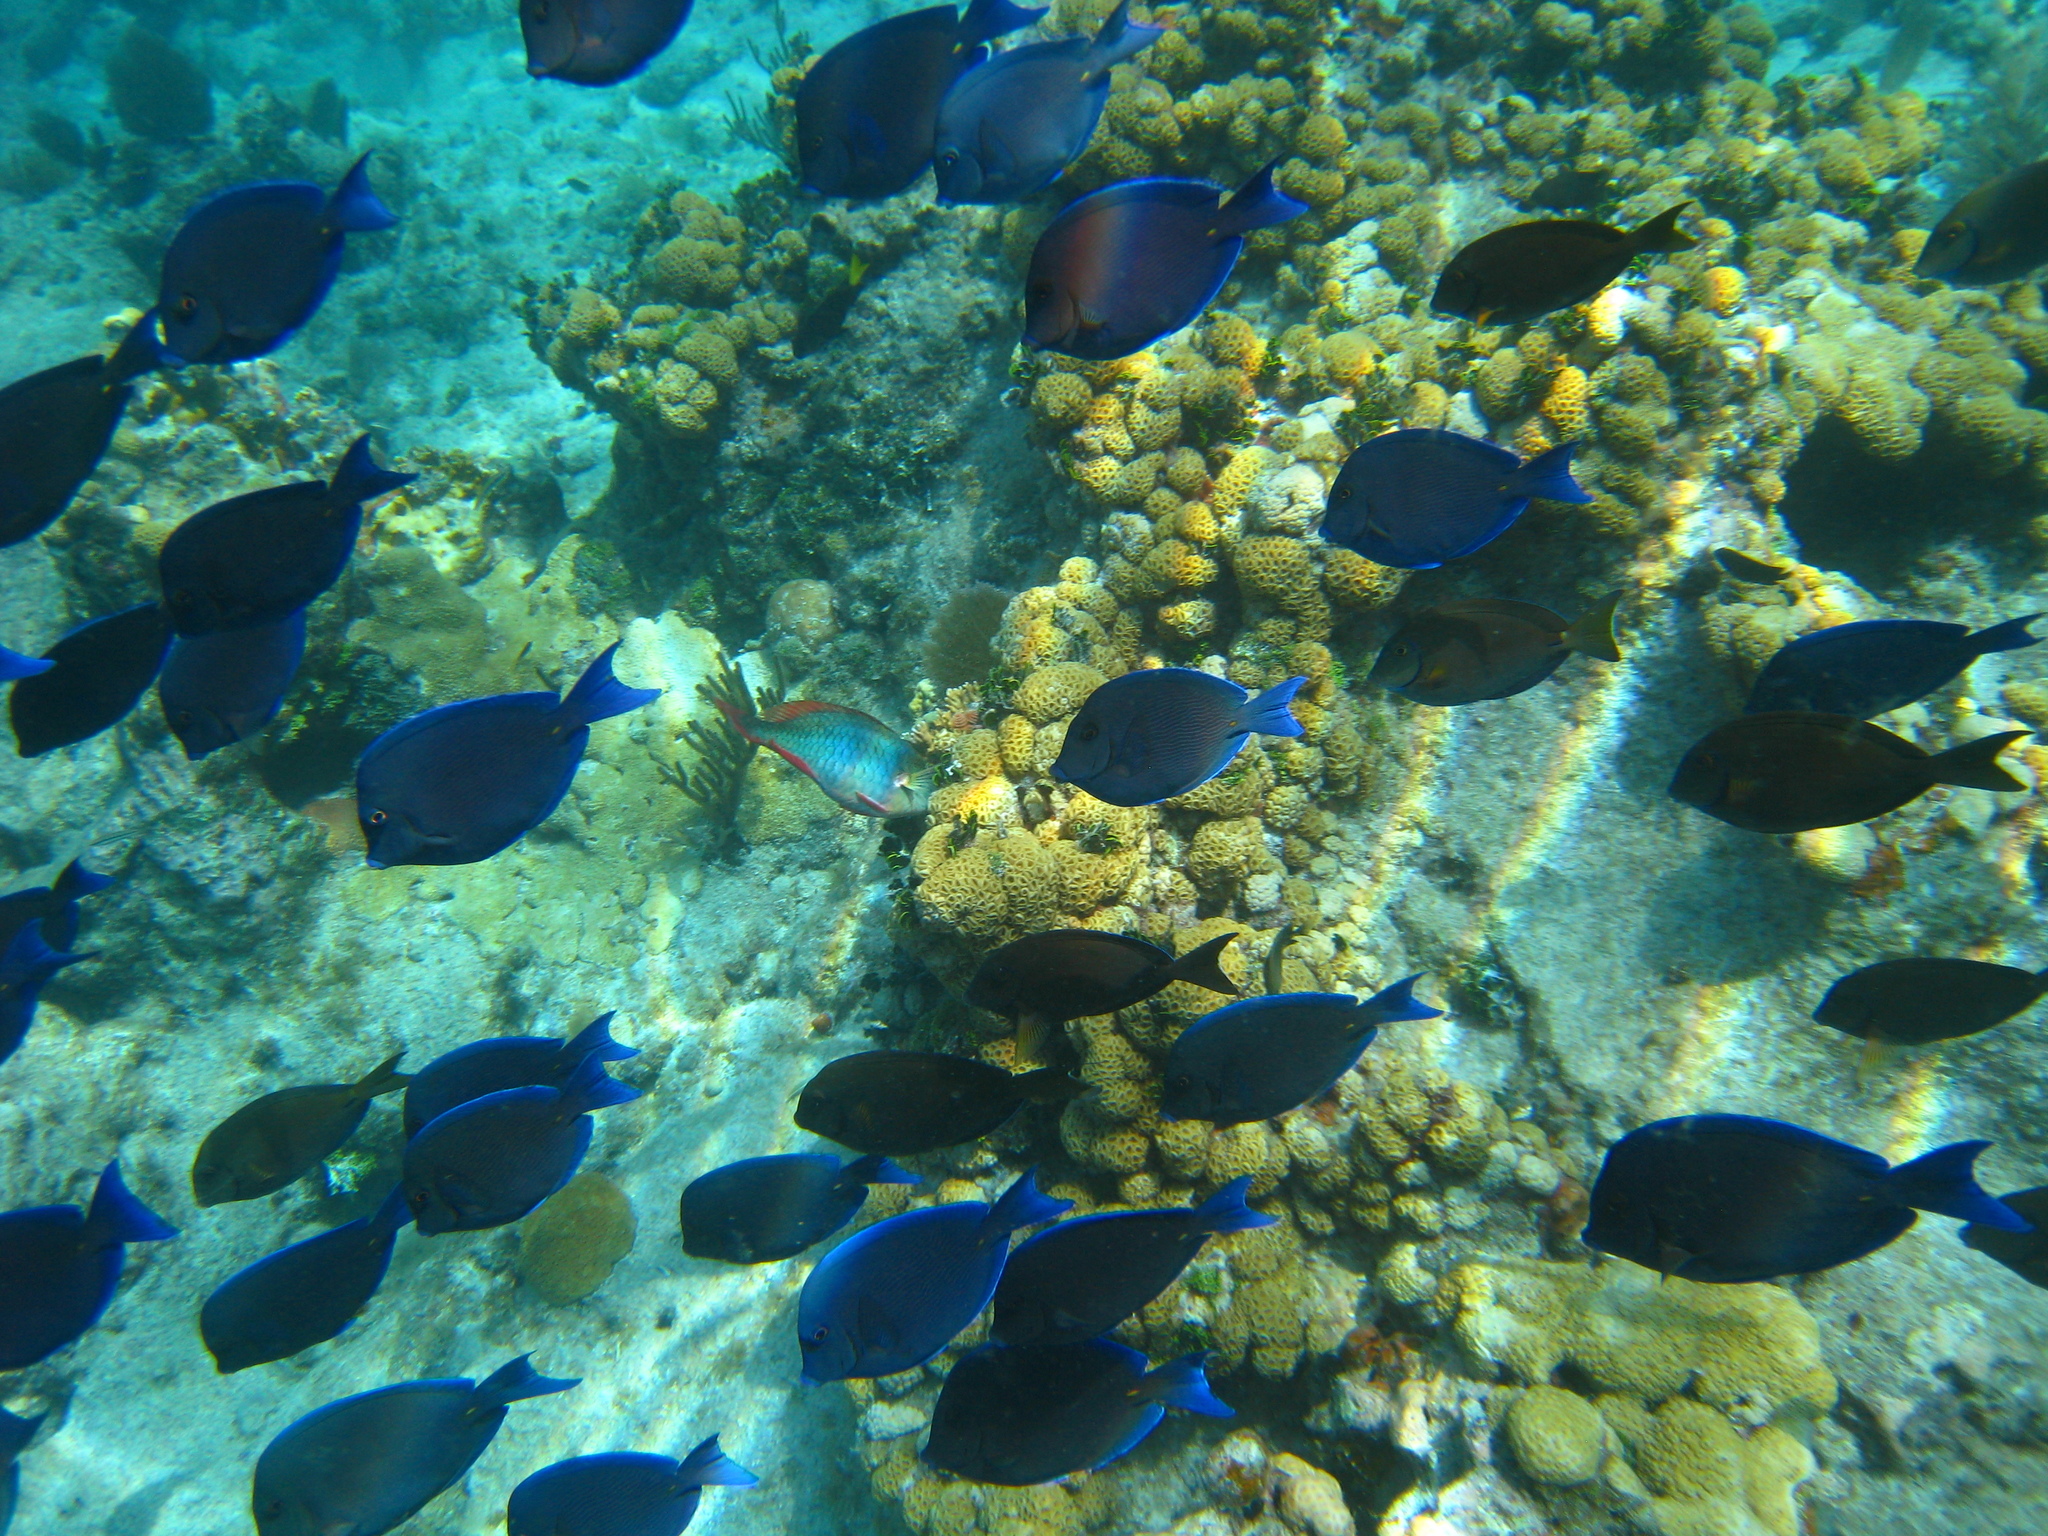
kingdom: Animalia
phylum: Chordata
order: Perciformes
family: Acanthuridae
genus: Acanthurus
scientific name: Acanthurus coeruleus
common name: Blue tang
